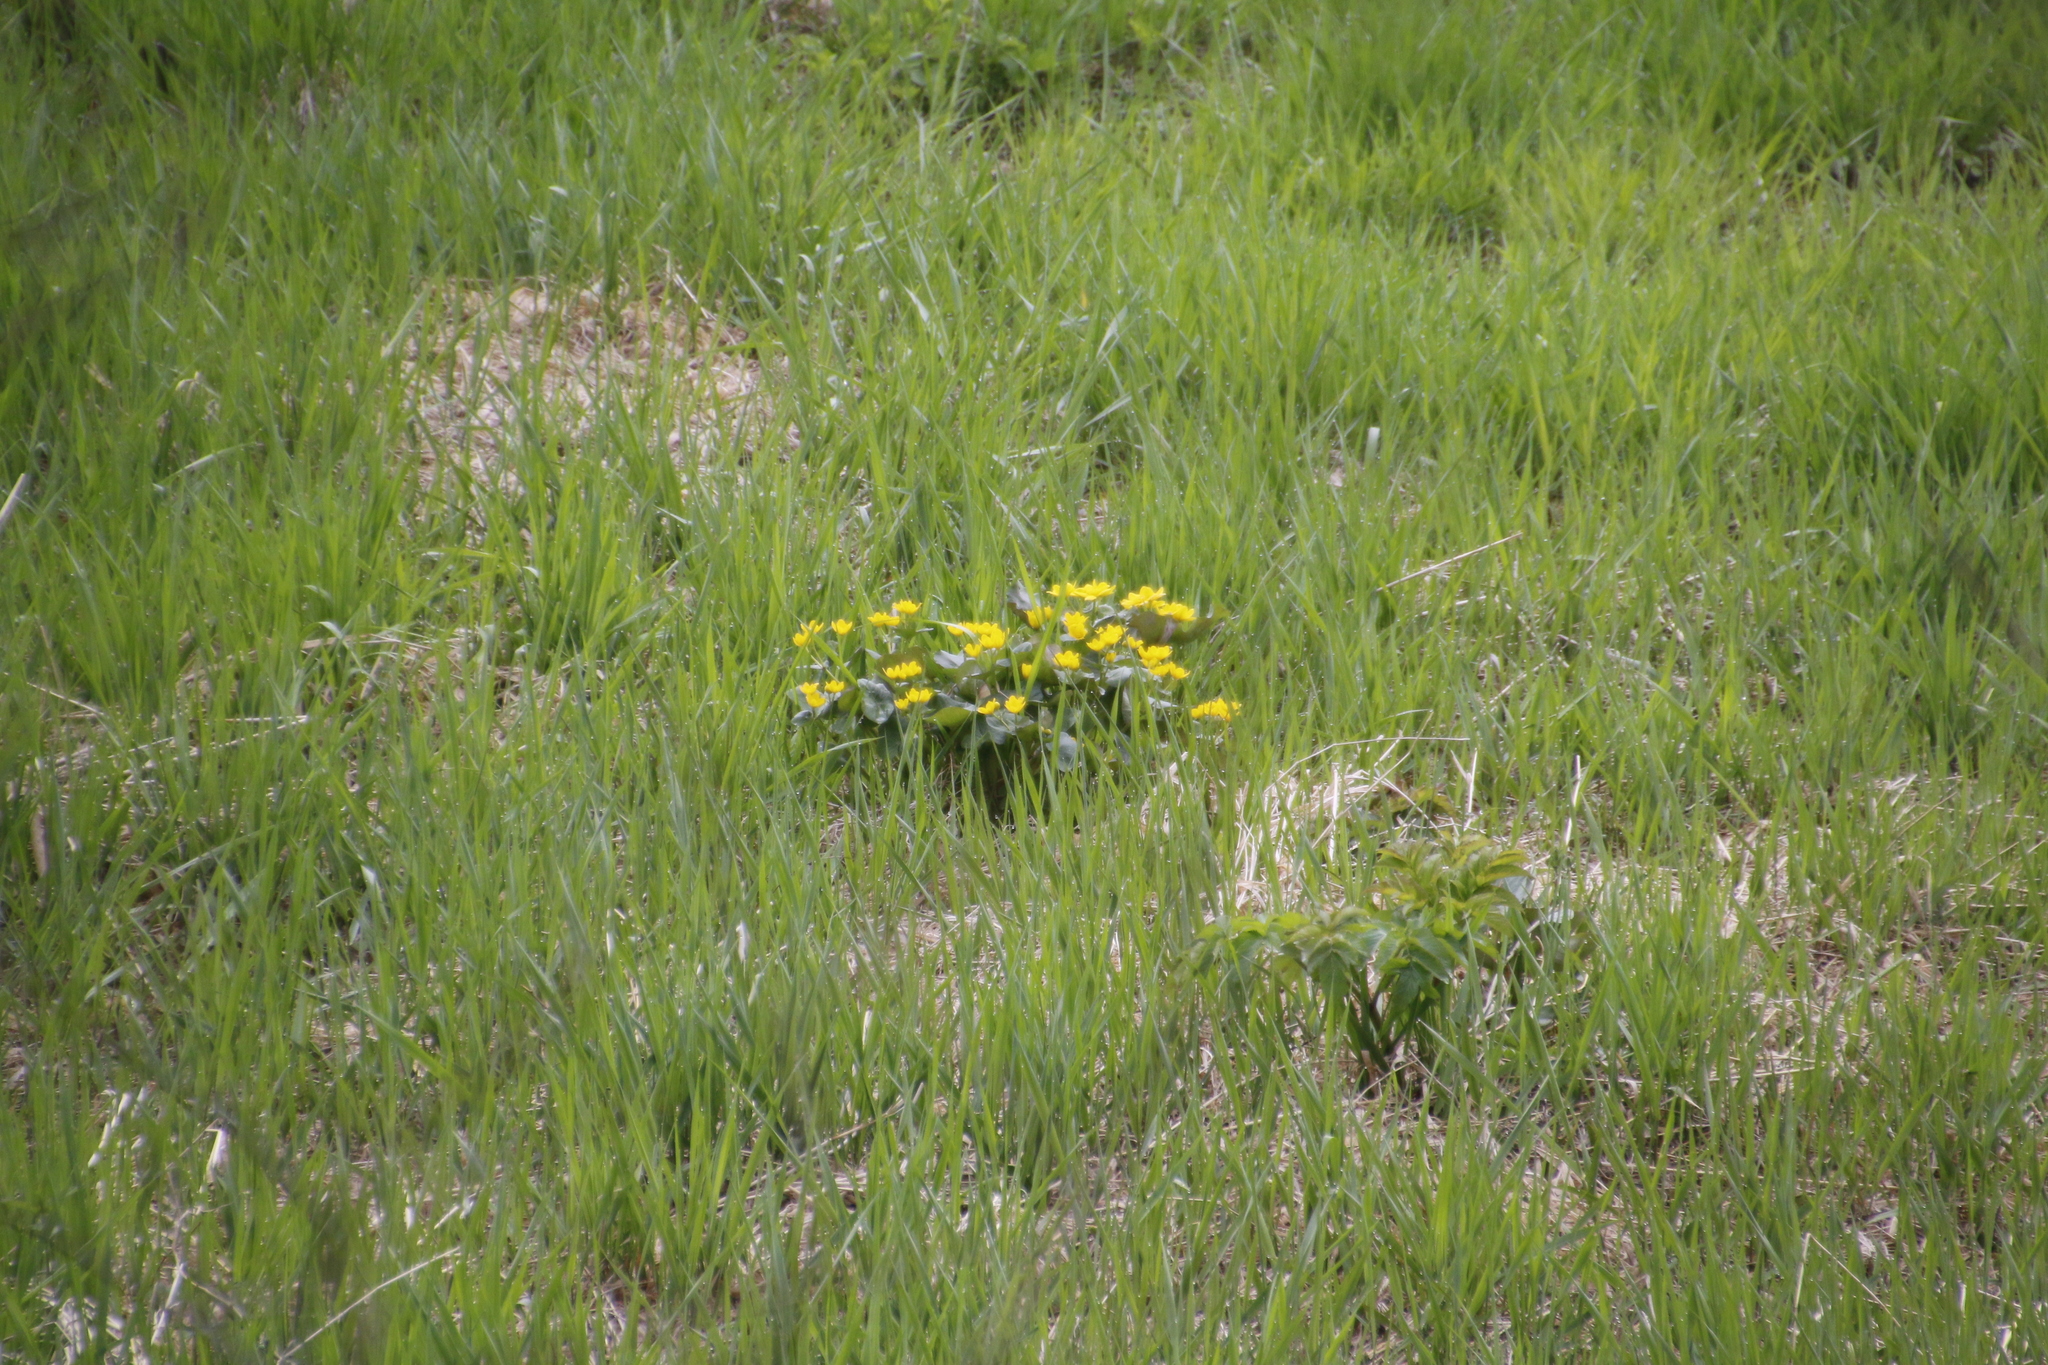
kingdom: Plantae
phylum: Tracheophyta
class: Magnoliopsida
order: Ranunculales
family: Ranunculaceae
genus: Caltha
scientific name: Caltha palustris
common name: Marsh marigold
